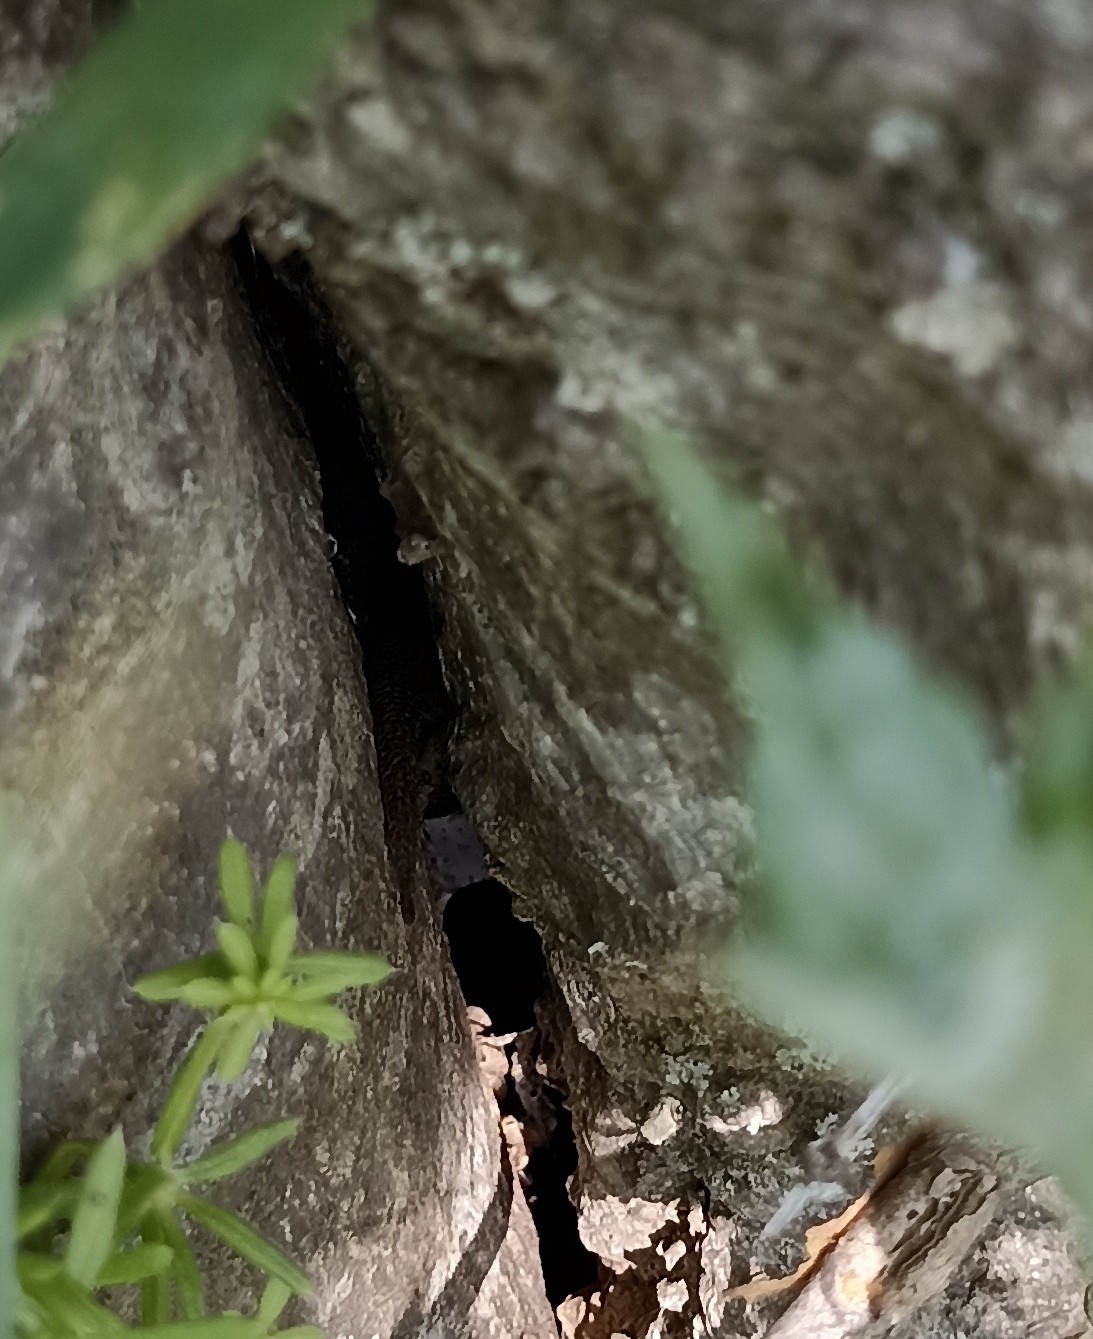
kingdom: Animalia
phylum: Chordata
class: Squamata
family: Phyllodactylidae
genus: Tarentola
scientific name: Tarentola mauritanica
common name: Moorish gecko
